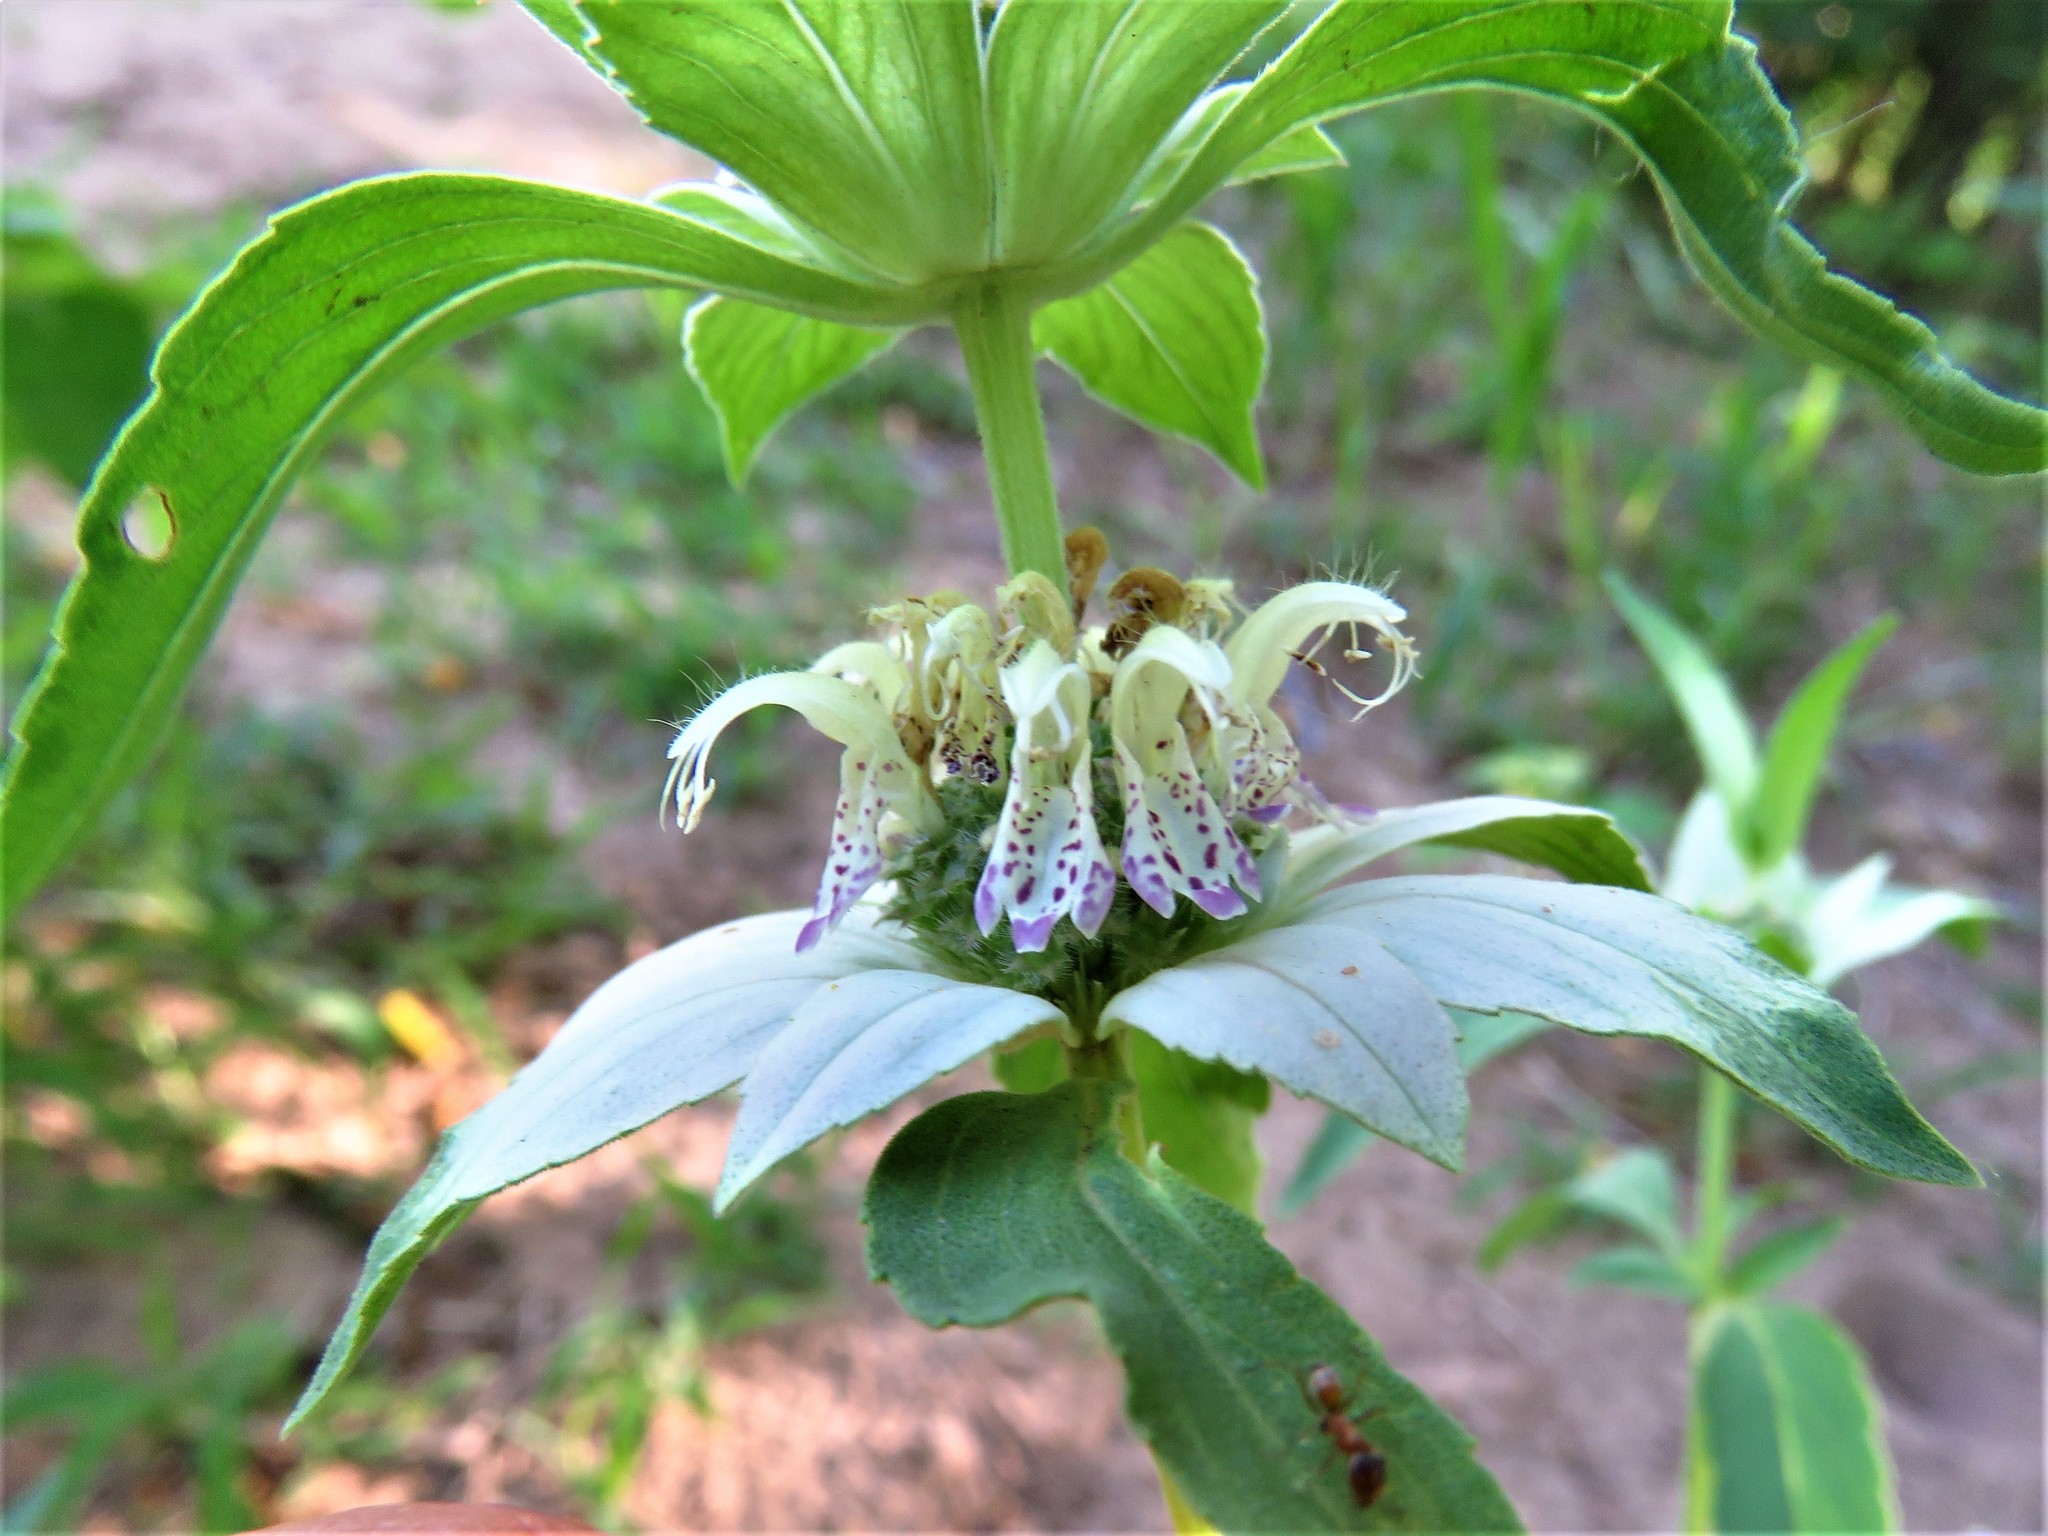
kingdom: Plantae
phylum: Tracheophyta
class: Magnoliopsida
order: Lamiales
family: Lamiaceae
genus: Monarda
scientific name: Monarda punctata
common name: Dotted monarda
